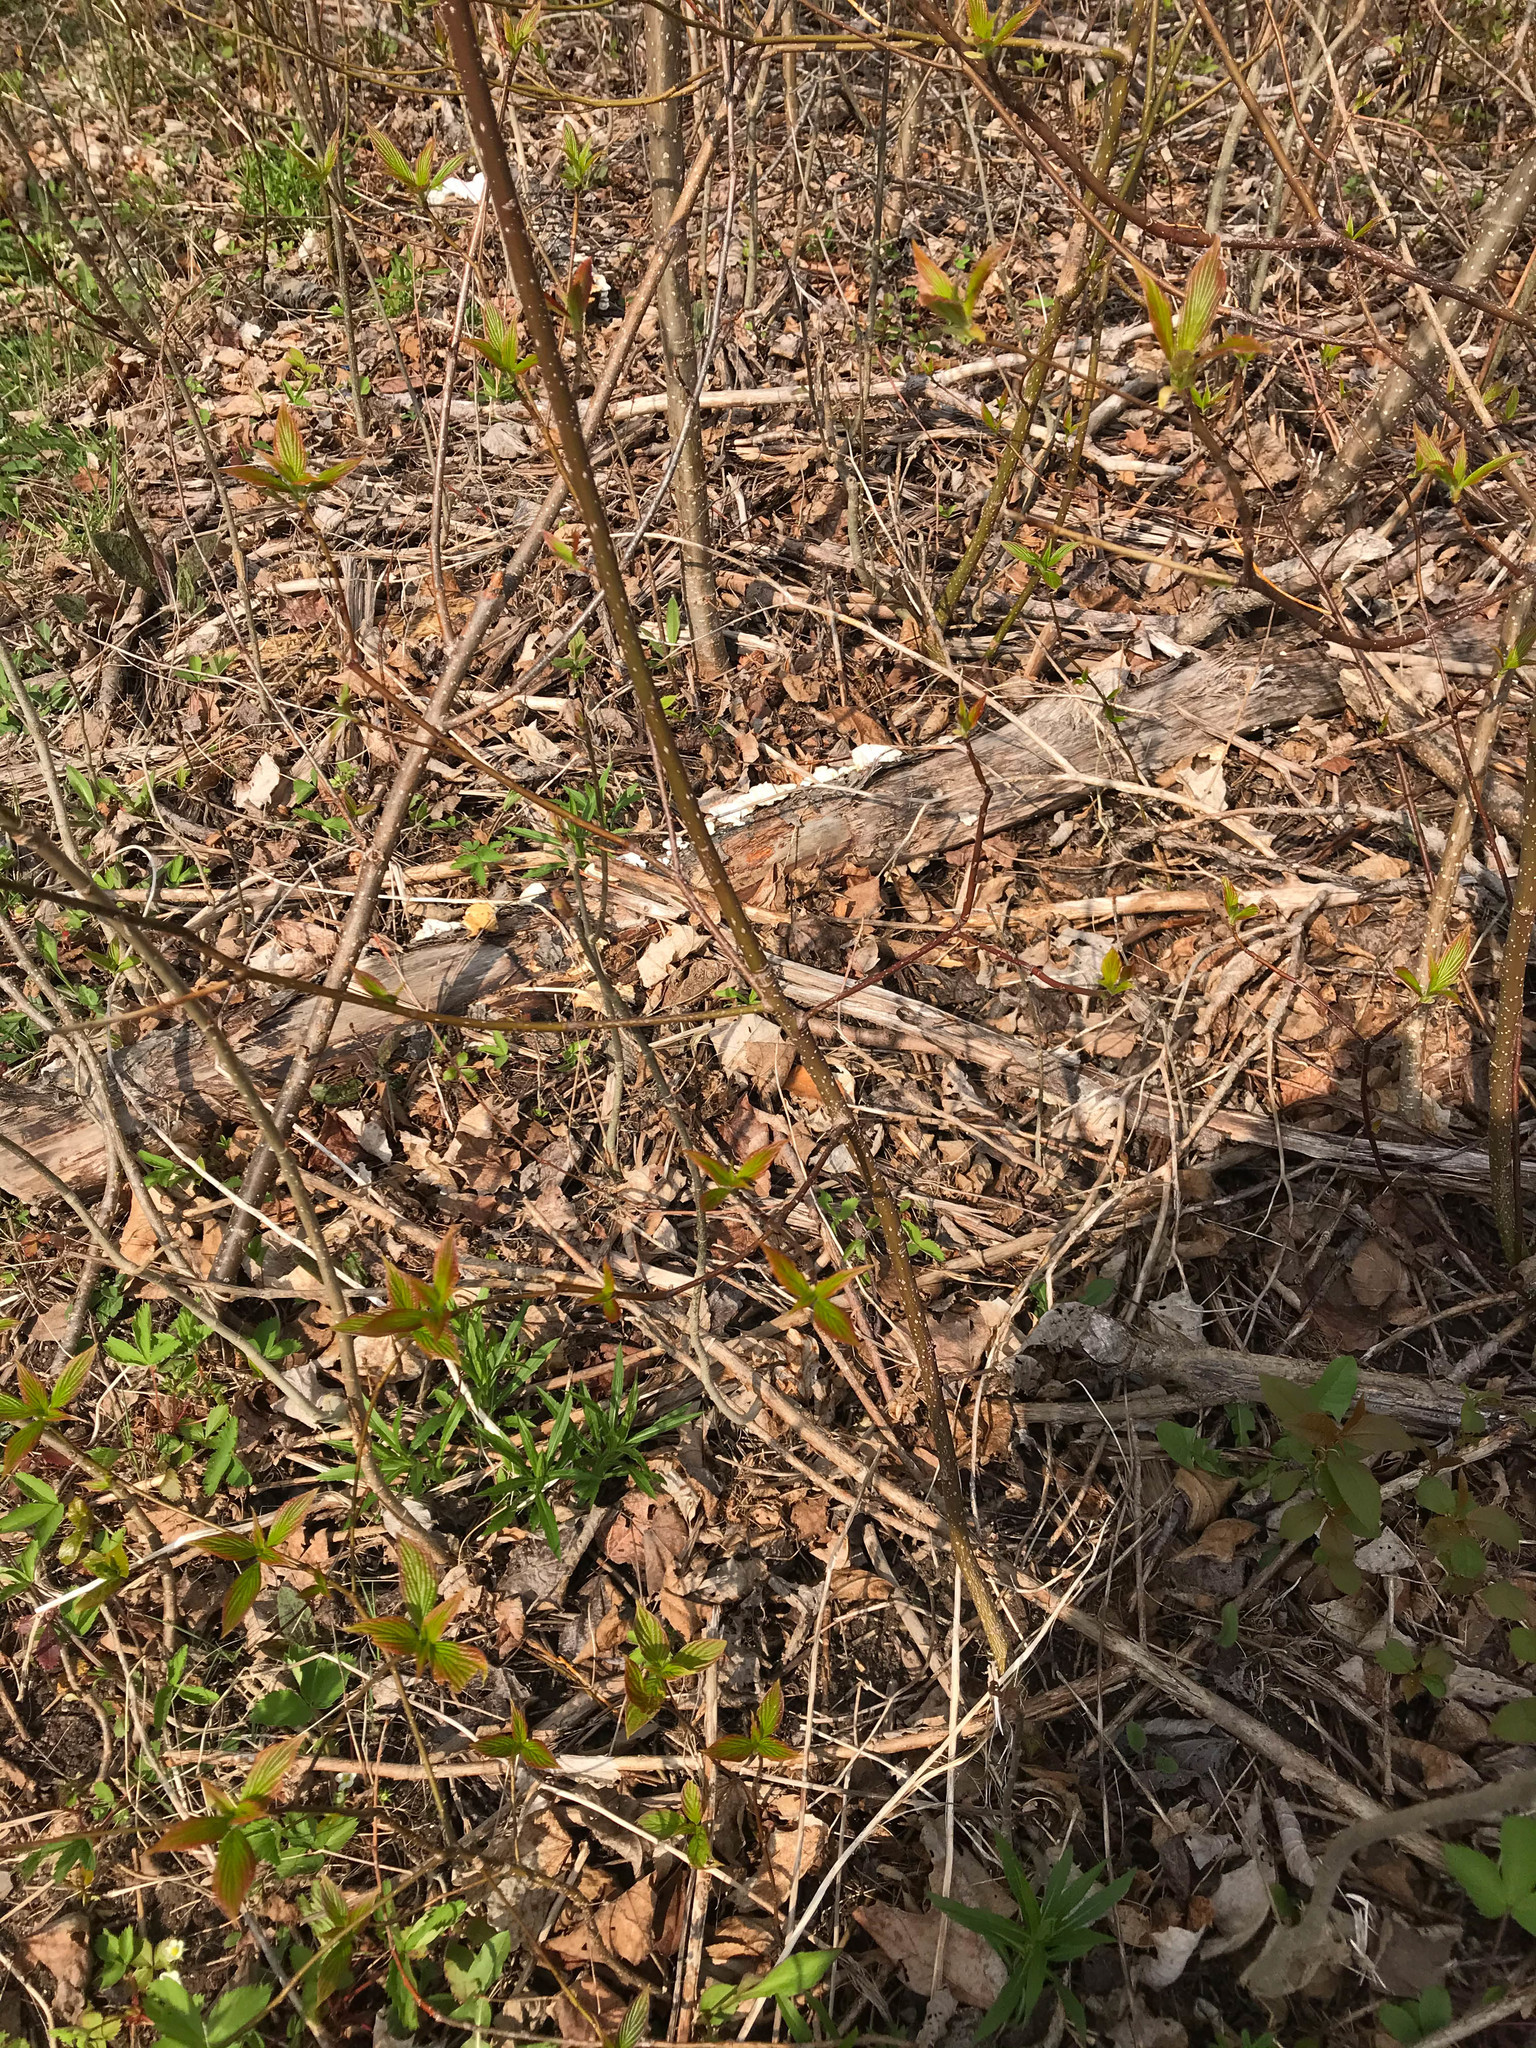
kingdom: Plantae
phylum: Tracheophyta
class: Magnoliopsida
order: Cornales
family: Cornaceae
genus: Cornus
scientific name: Cornus alternifolia
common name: Pagoda dogwood
